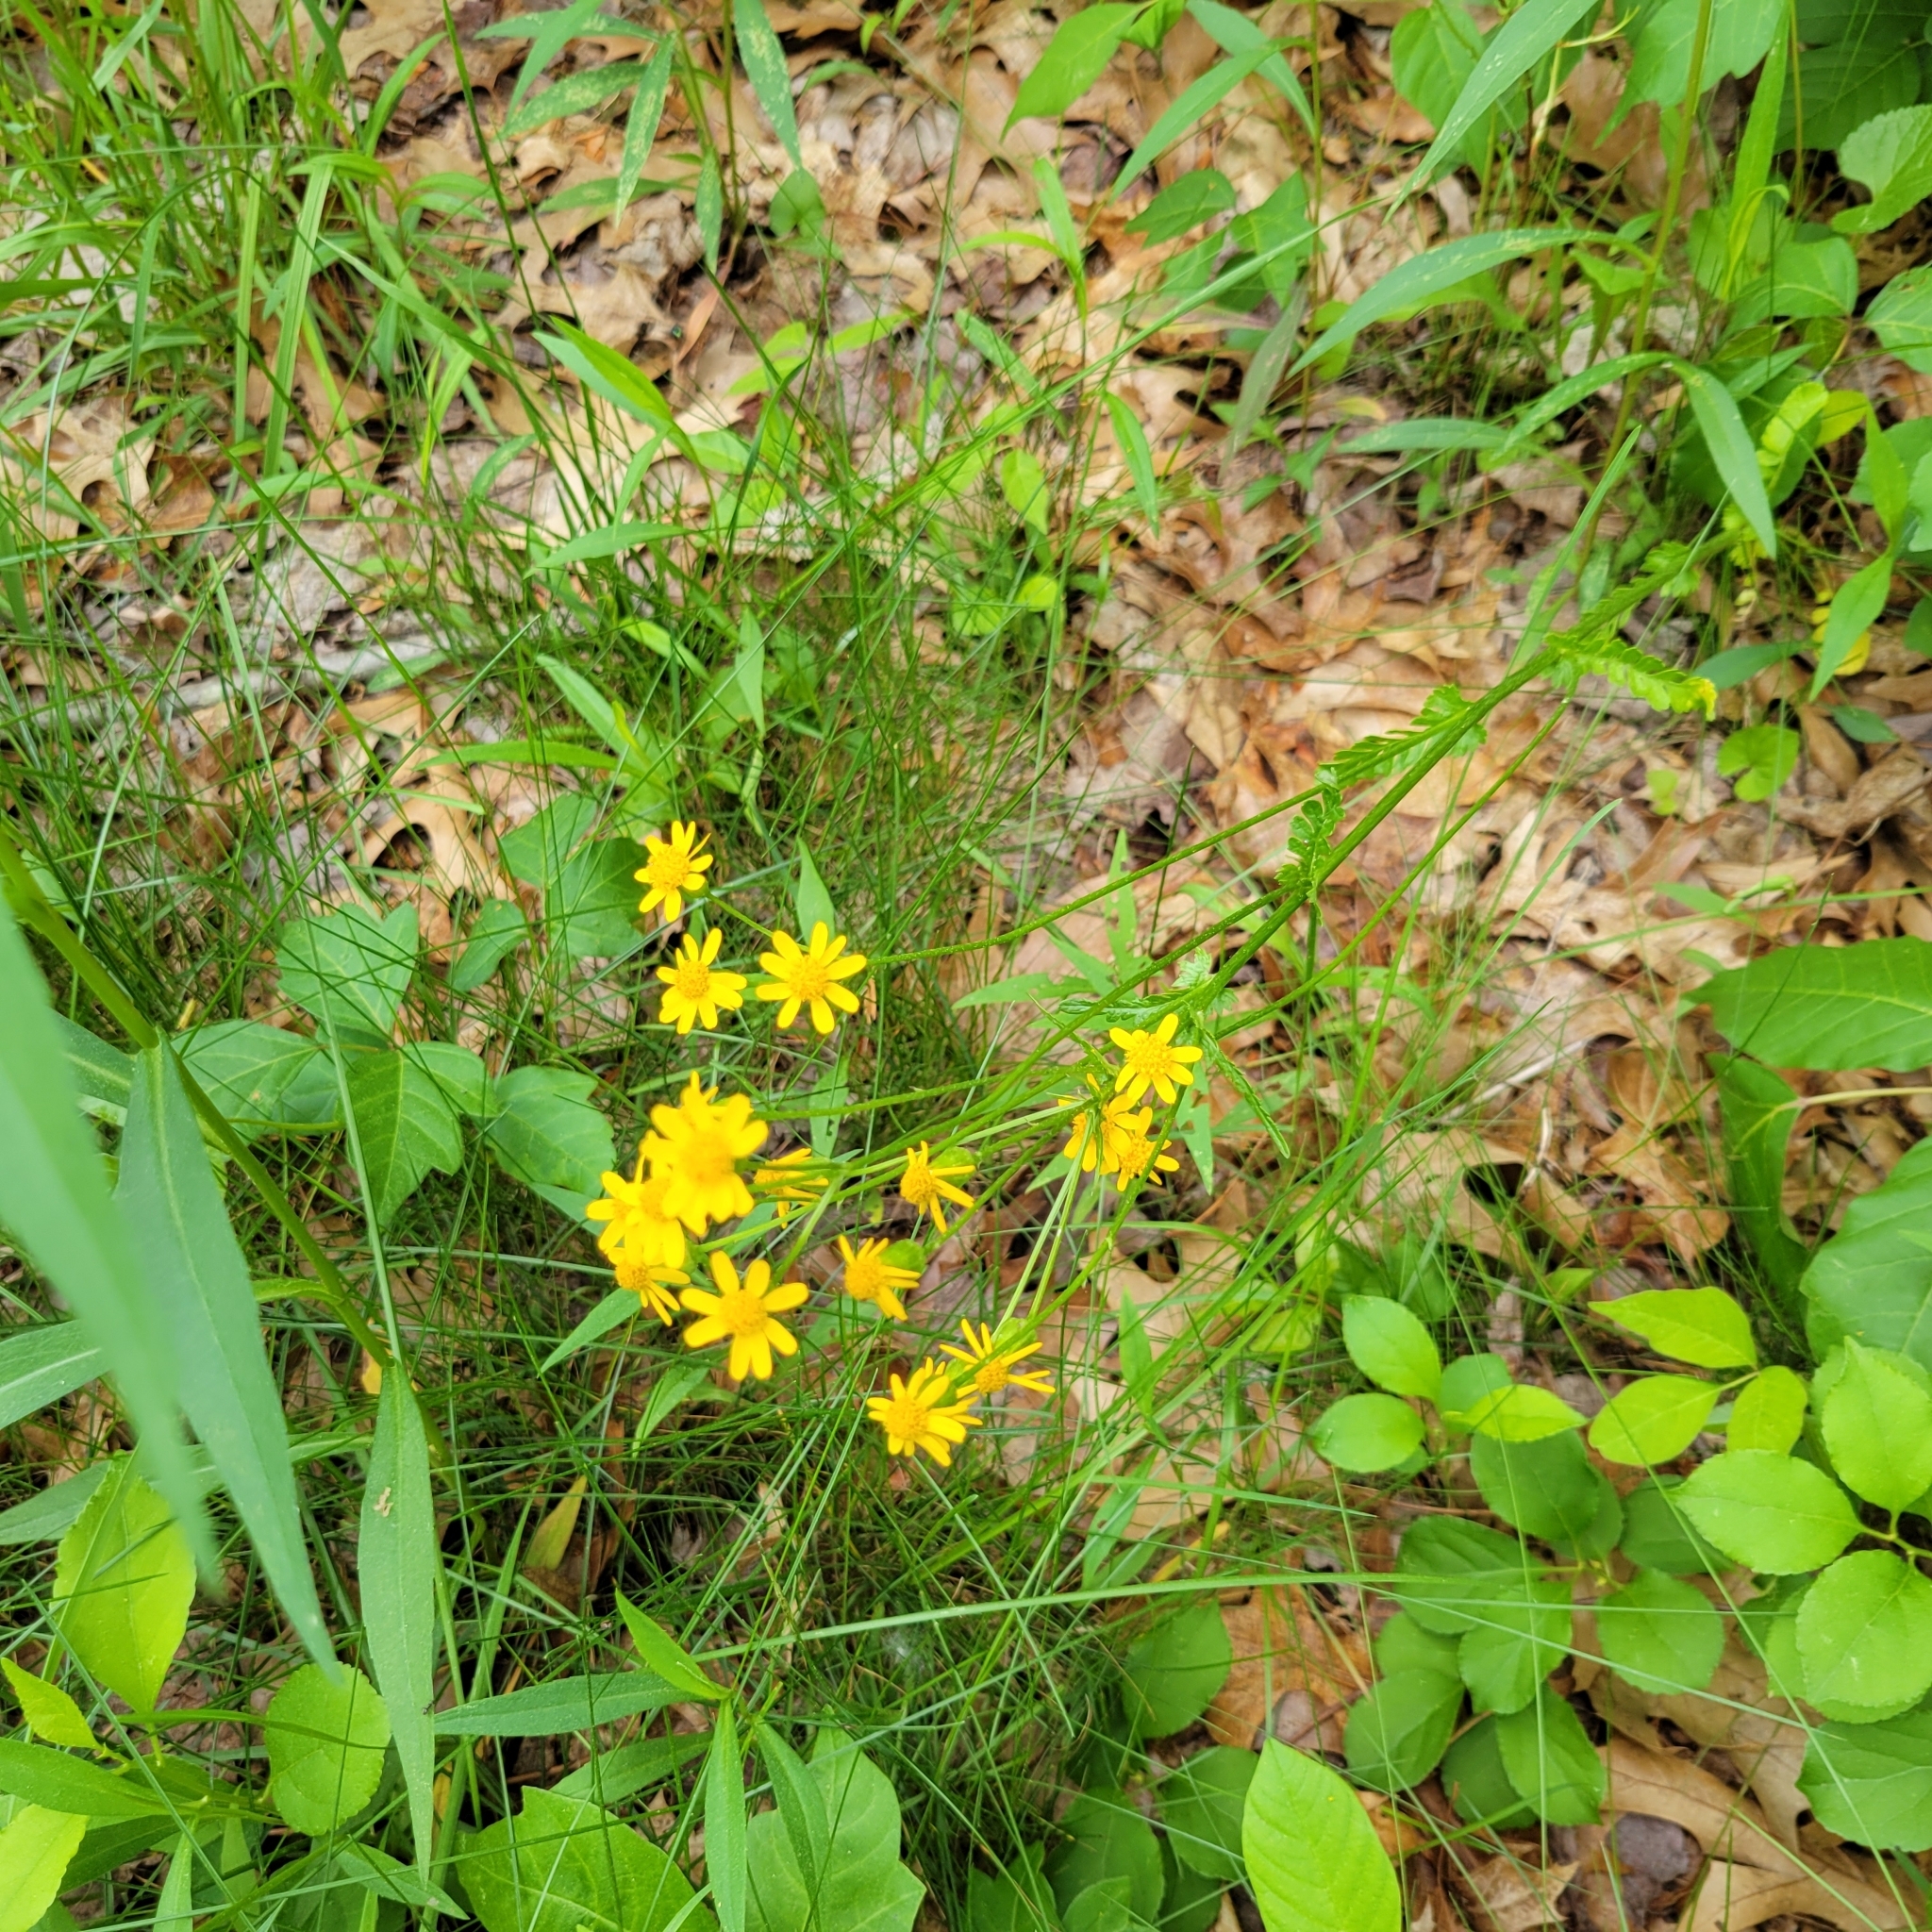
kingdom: Plantae
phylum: Tracheophyta
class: Magnoliopsida
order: Asterales
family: Asteraceae
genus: Packera
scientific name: Packera aurea
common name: Golden groundsel
